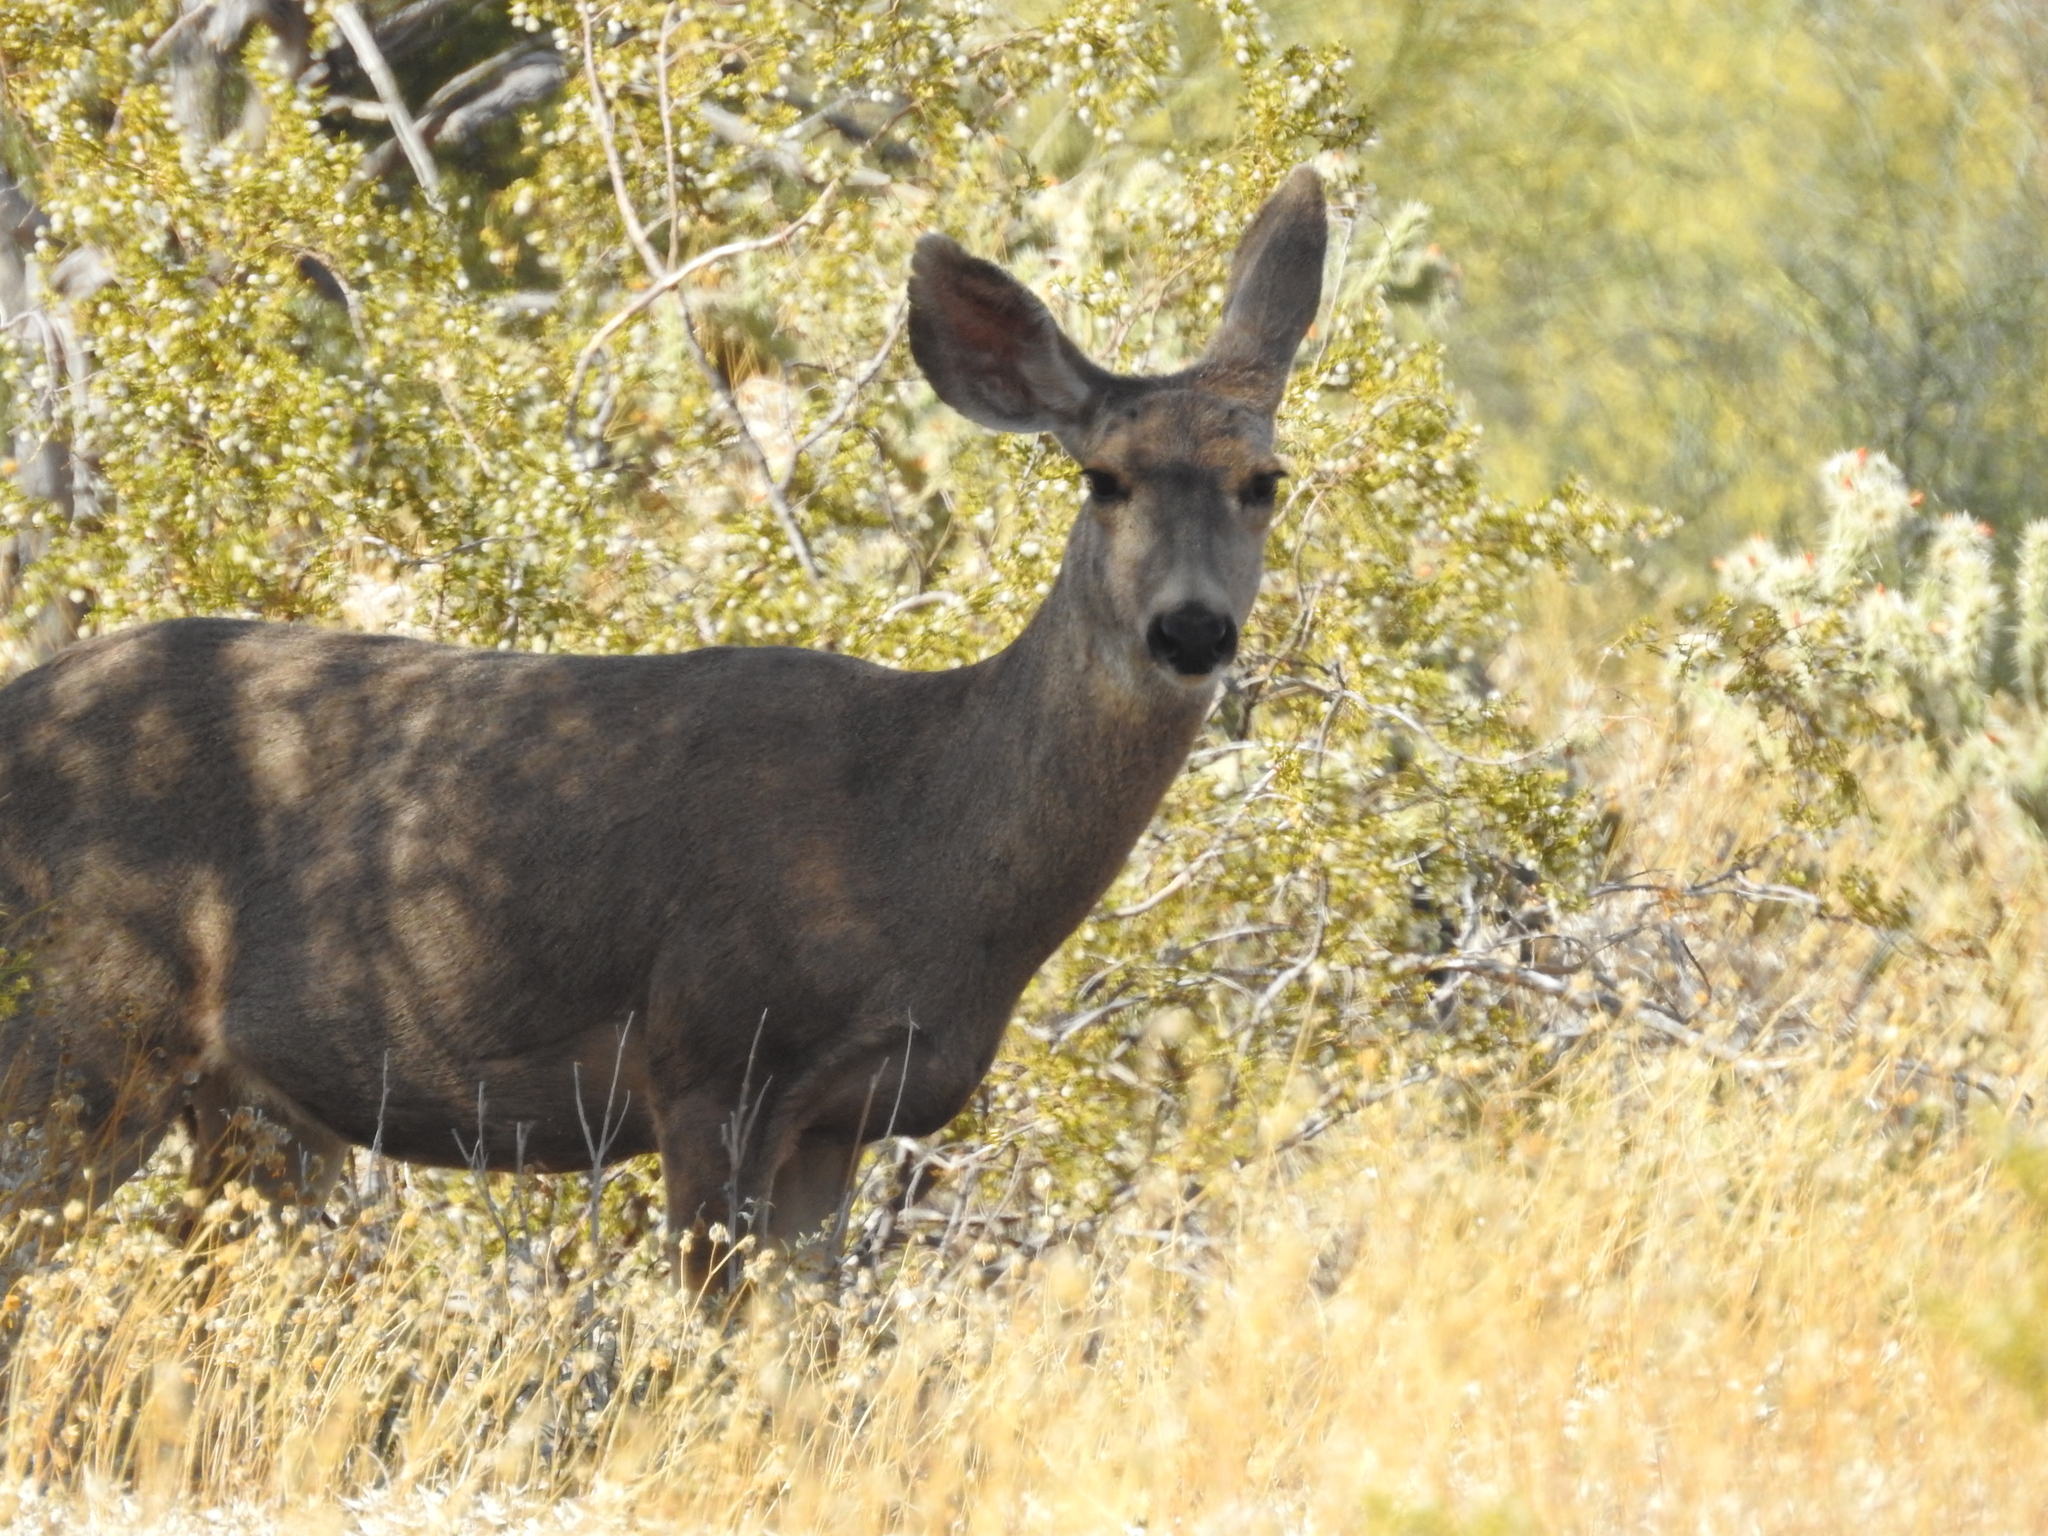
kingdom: Animalia
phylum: Chordata
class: Mammalia
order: Artiodactyla
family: Cervidae
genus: Odocoileus
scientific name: Odocoileus hemionus
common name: Mule deer
